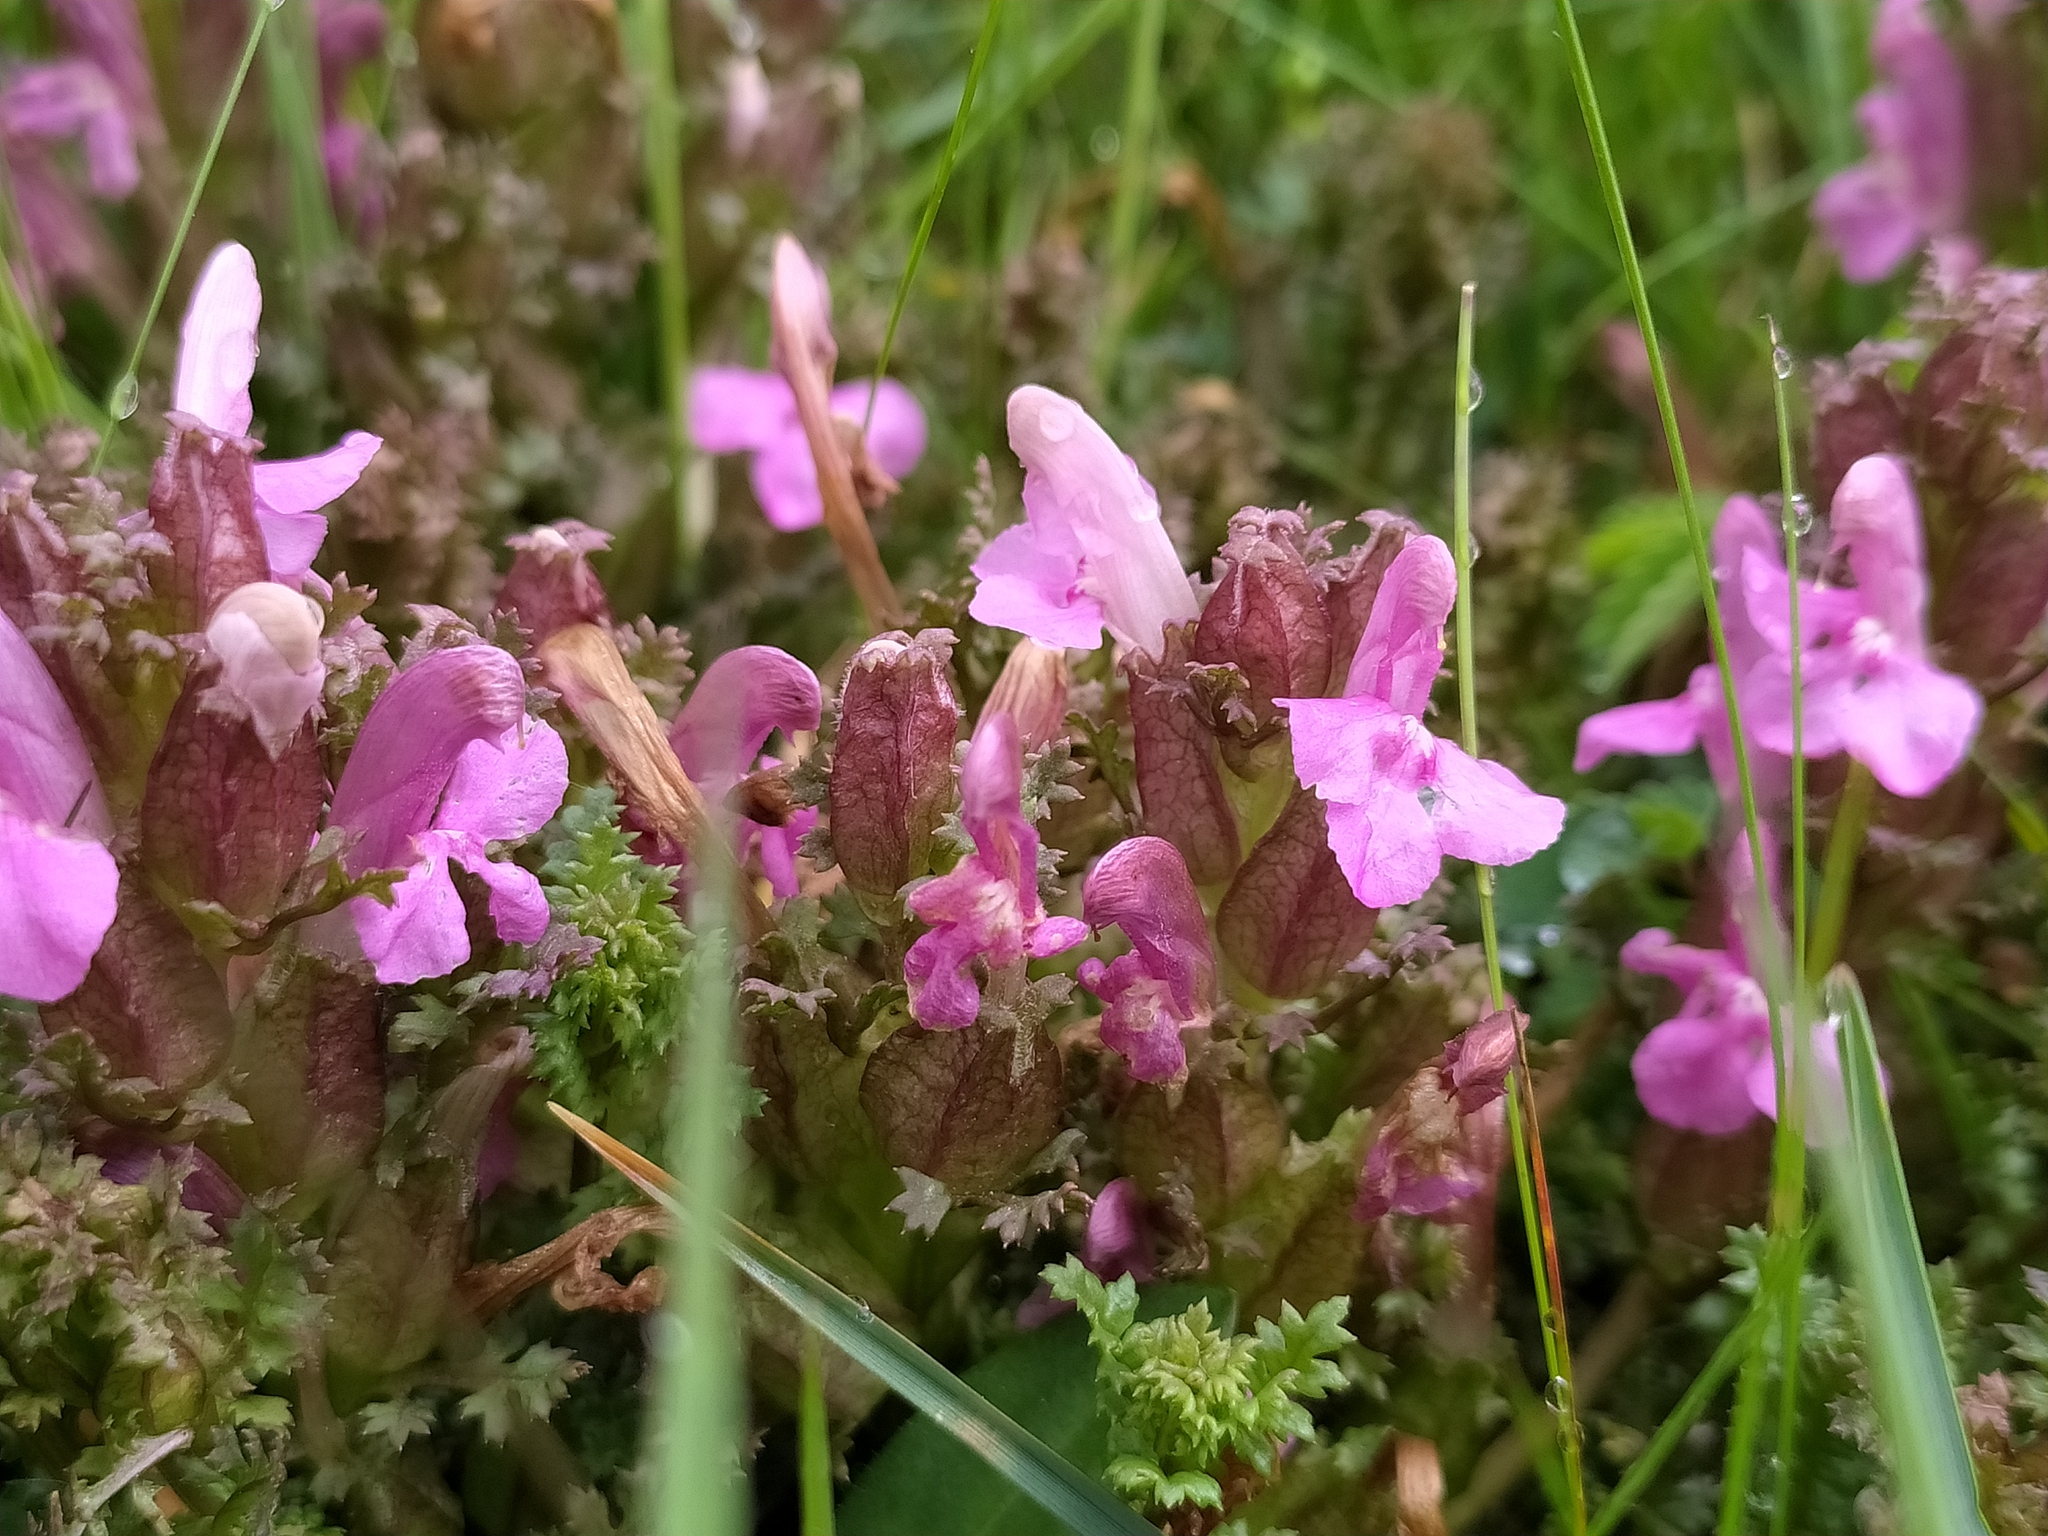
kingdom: Plantae
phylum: Tracheophyta
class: Magnoliopsida
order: Lamiales
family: Orobanchaceae
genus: Pedicularis
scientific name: Pedicularis sylvatica
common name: Lousewort
